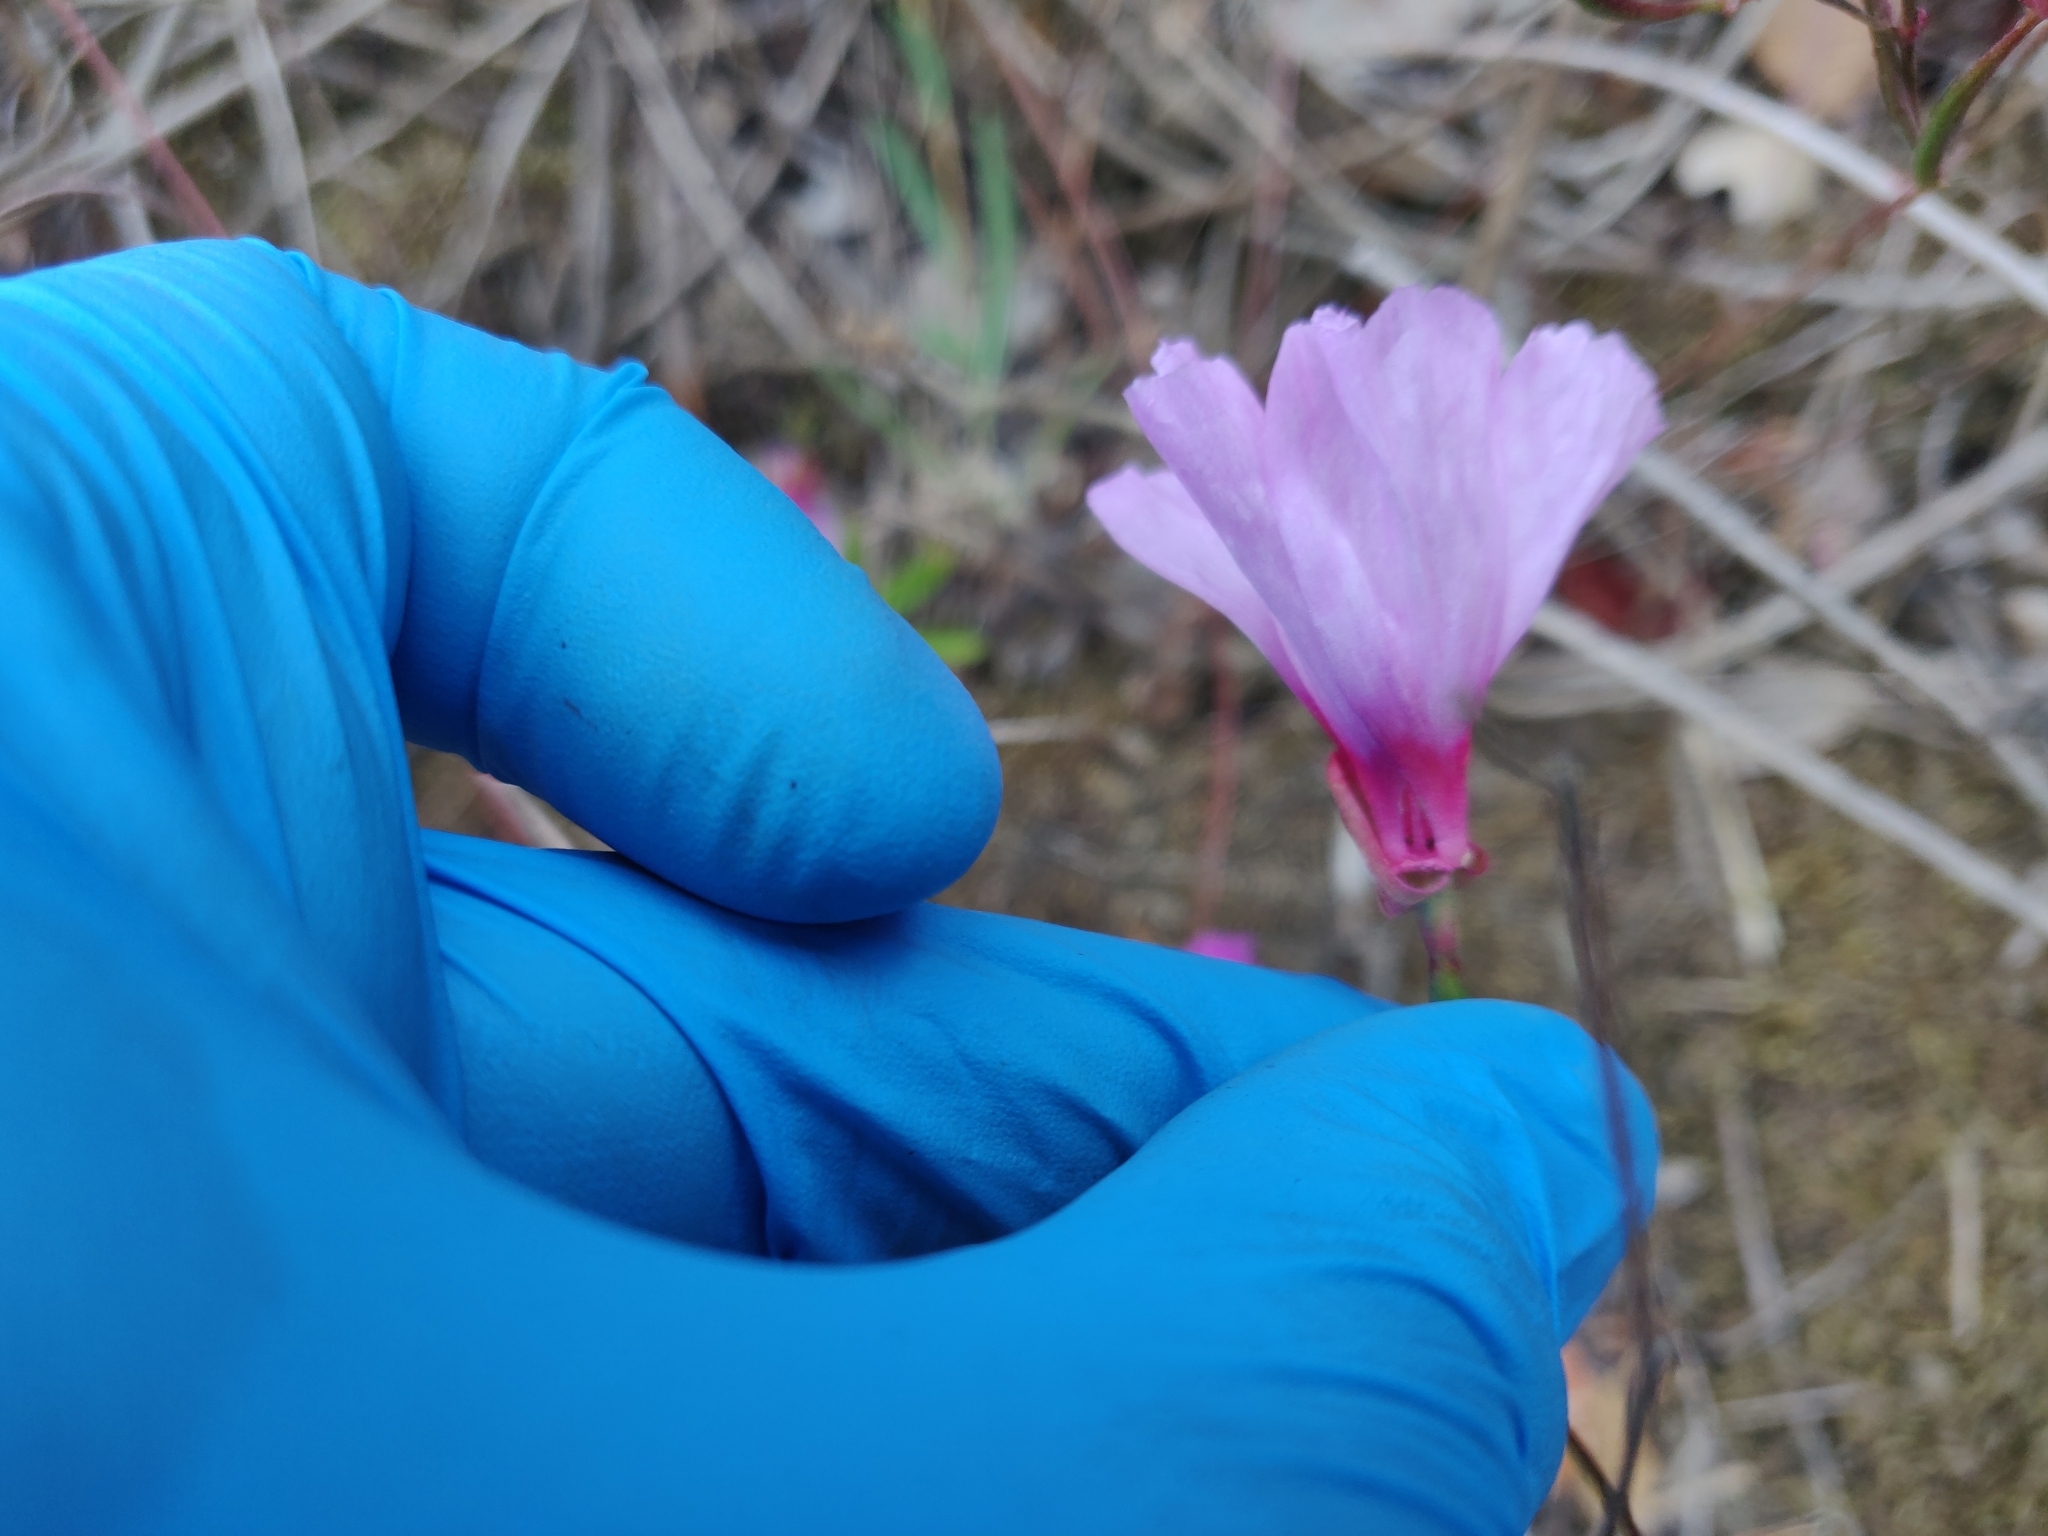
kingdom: Plantae
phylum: Tracheophyta
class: Magnoliopsida
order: Myrtales
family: Onagraceae
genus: Clarkia
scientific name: Clarkia rubicunda
